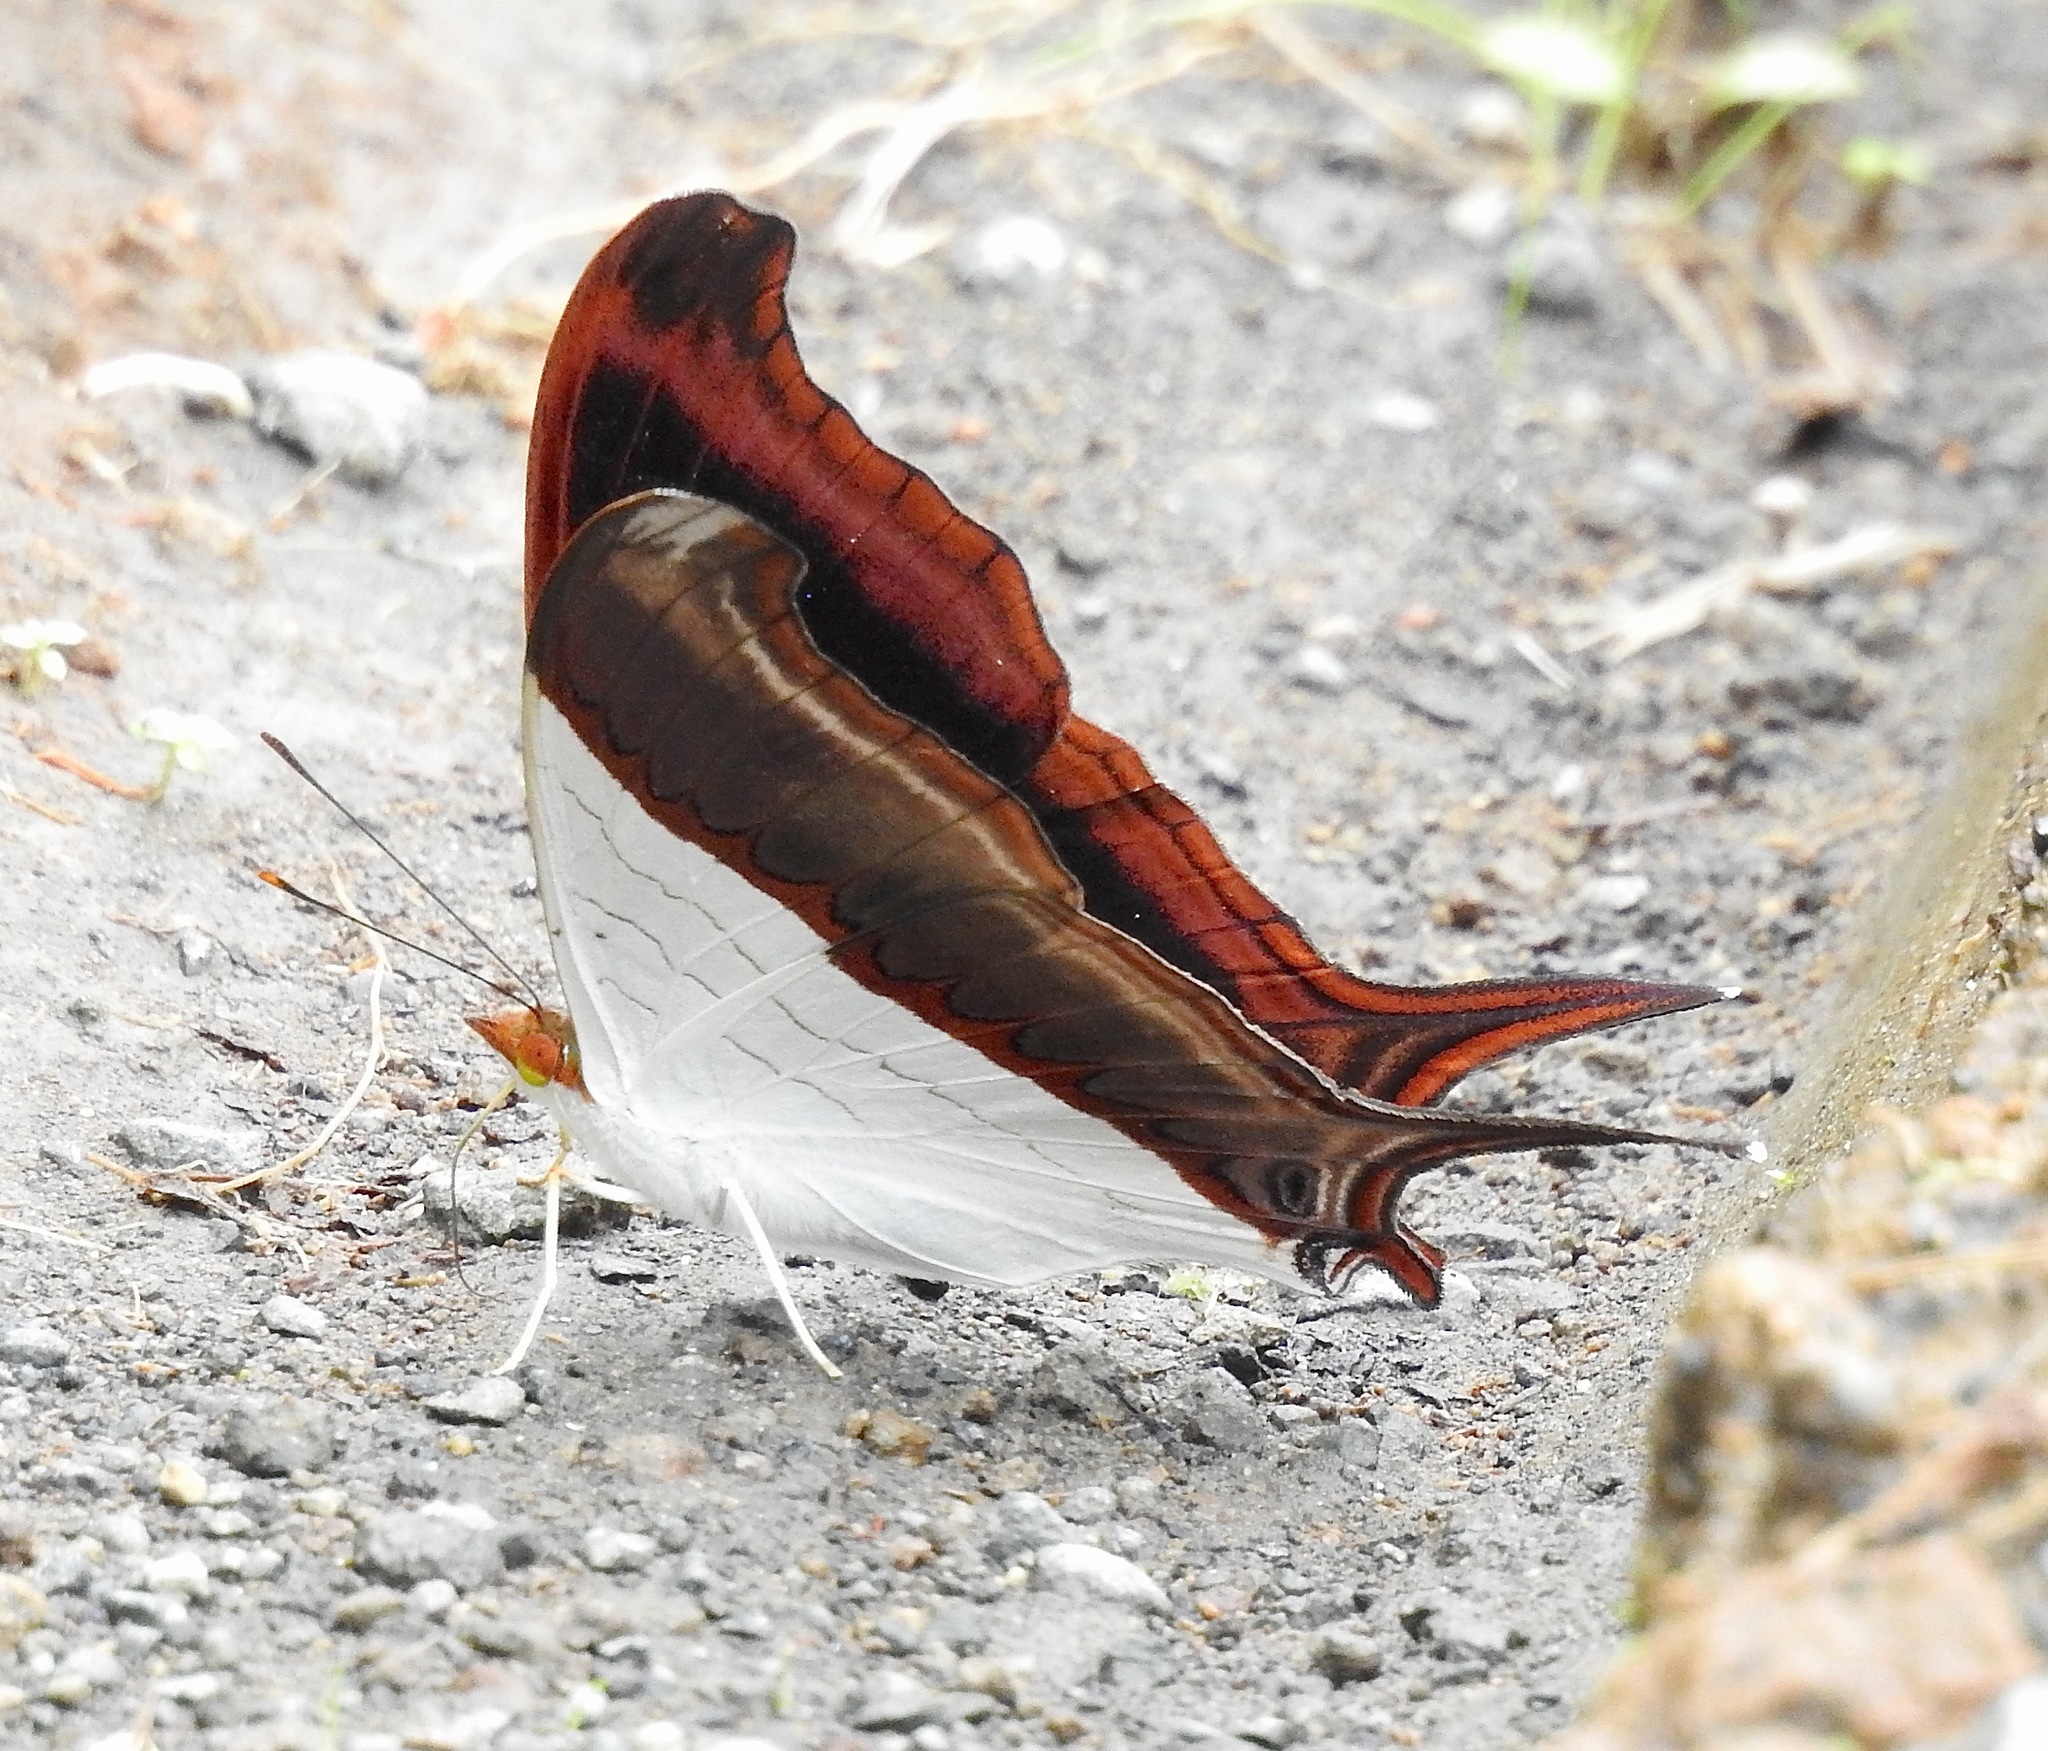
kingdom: Animalia
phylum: Arthropoda
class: Insecta
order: Lepidoptera
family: Nymphalidae
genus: Marpesia
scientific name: Marpesia zerynthia
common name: Waiter daggerwing
